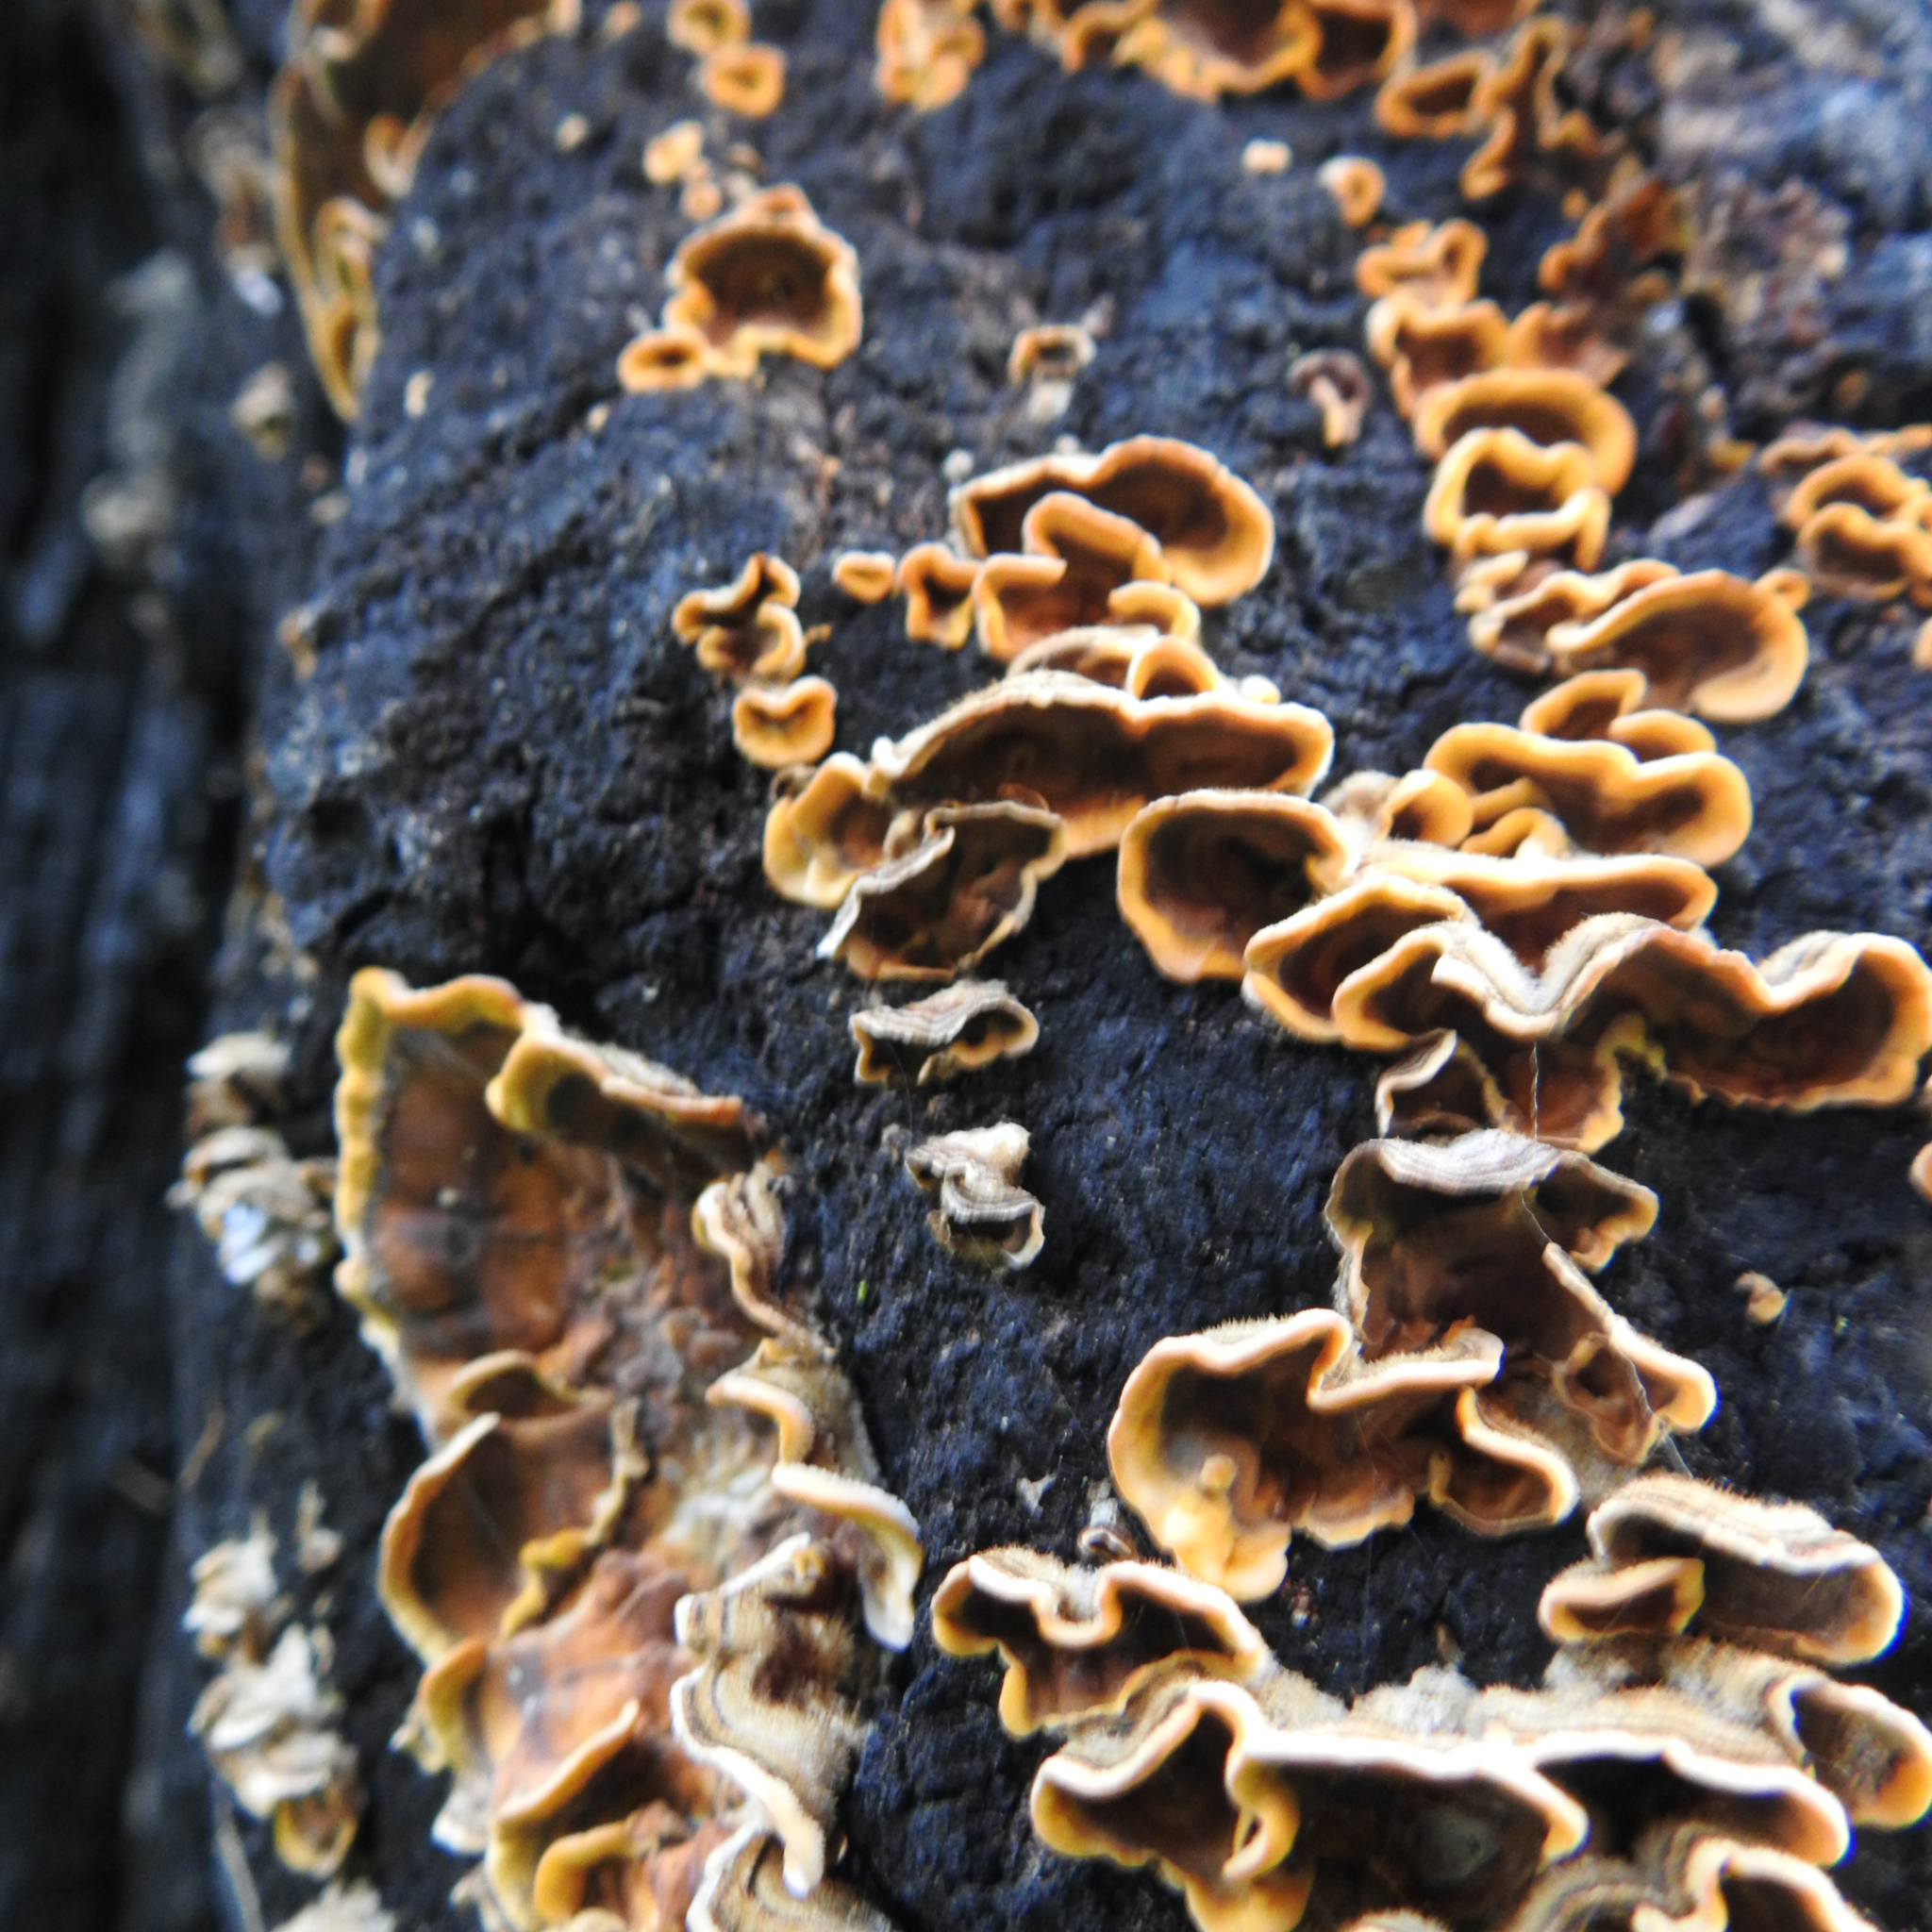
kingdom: Fungi
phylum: Basidiomycota
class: Agaricomycetes
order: Russulales
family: Stereaceae
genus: Stereum
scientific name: Stereum hirsutum
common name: Hairy curtain crust
